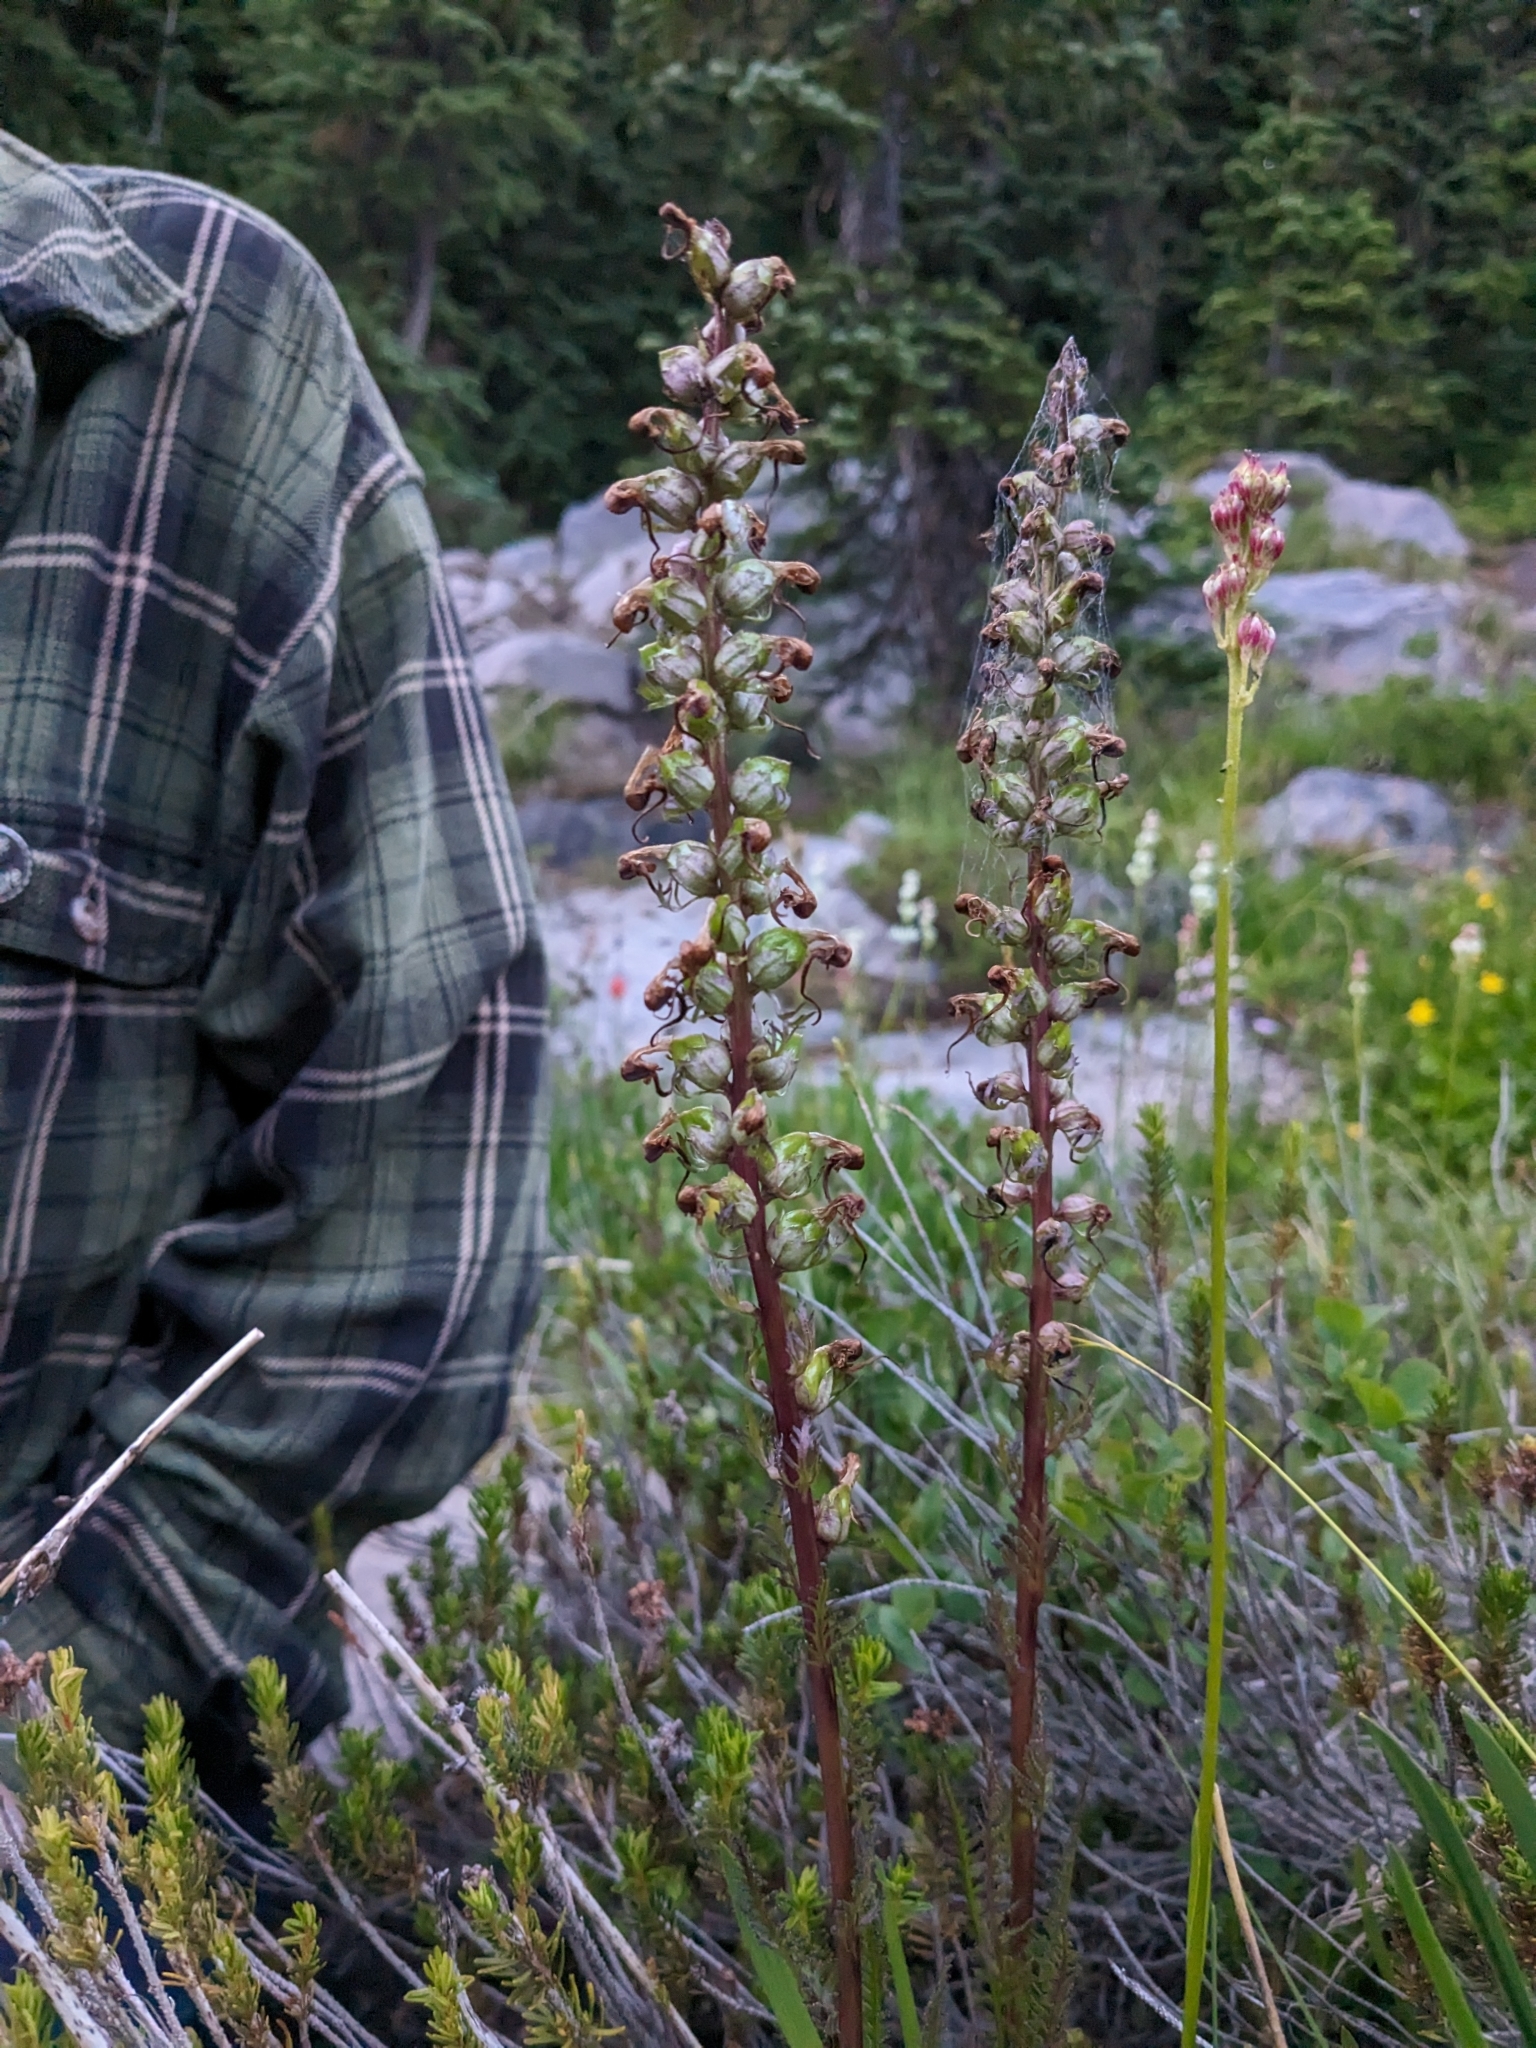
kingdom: Plantae
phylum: Tracheophyta
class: Magnoliopsida
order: Lamiales
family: Orobanchaceae
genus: Pedicularis
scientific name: Pedicularis groenlandica
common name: Elephant's-head
